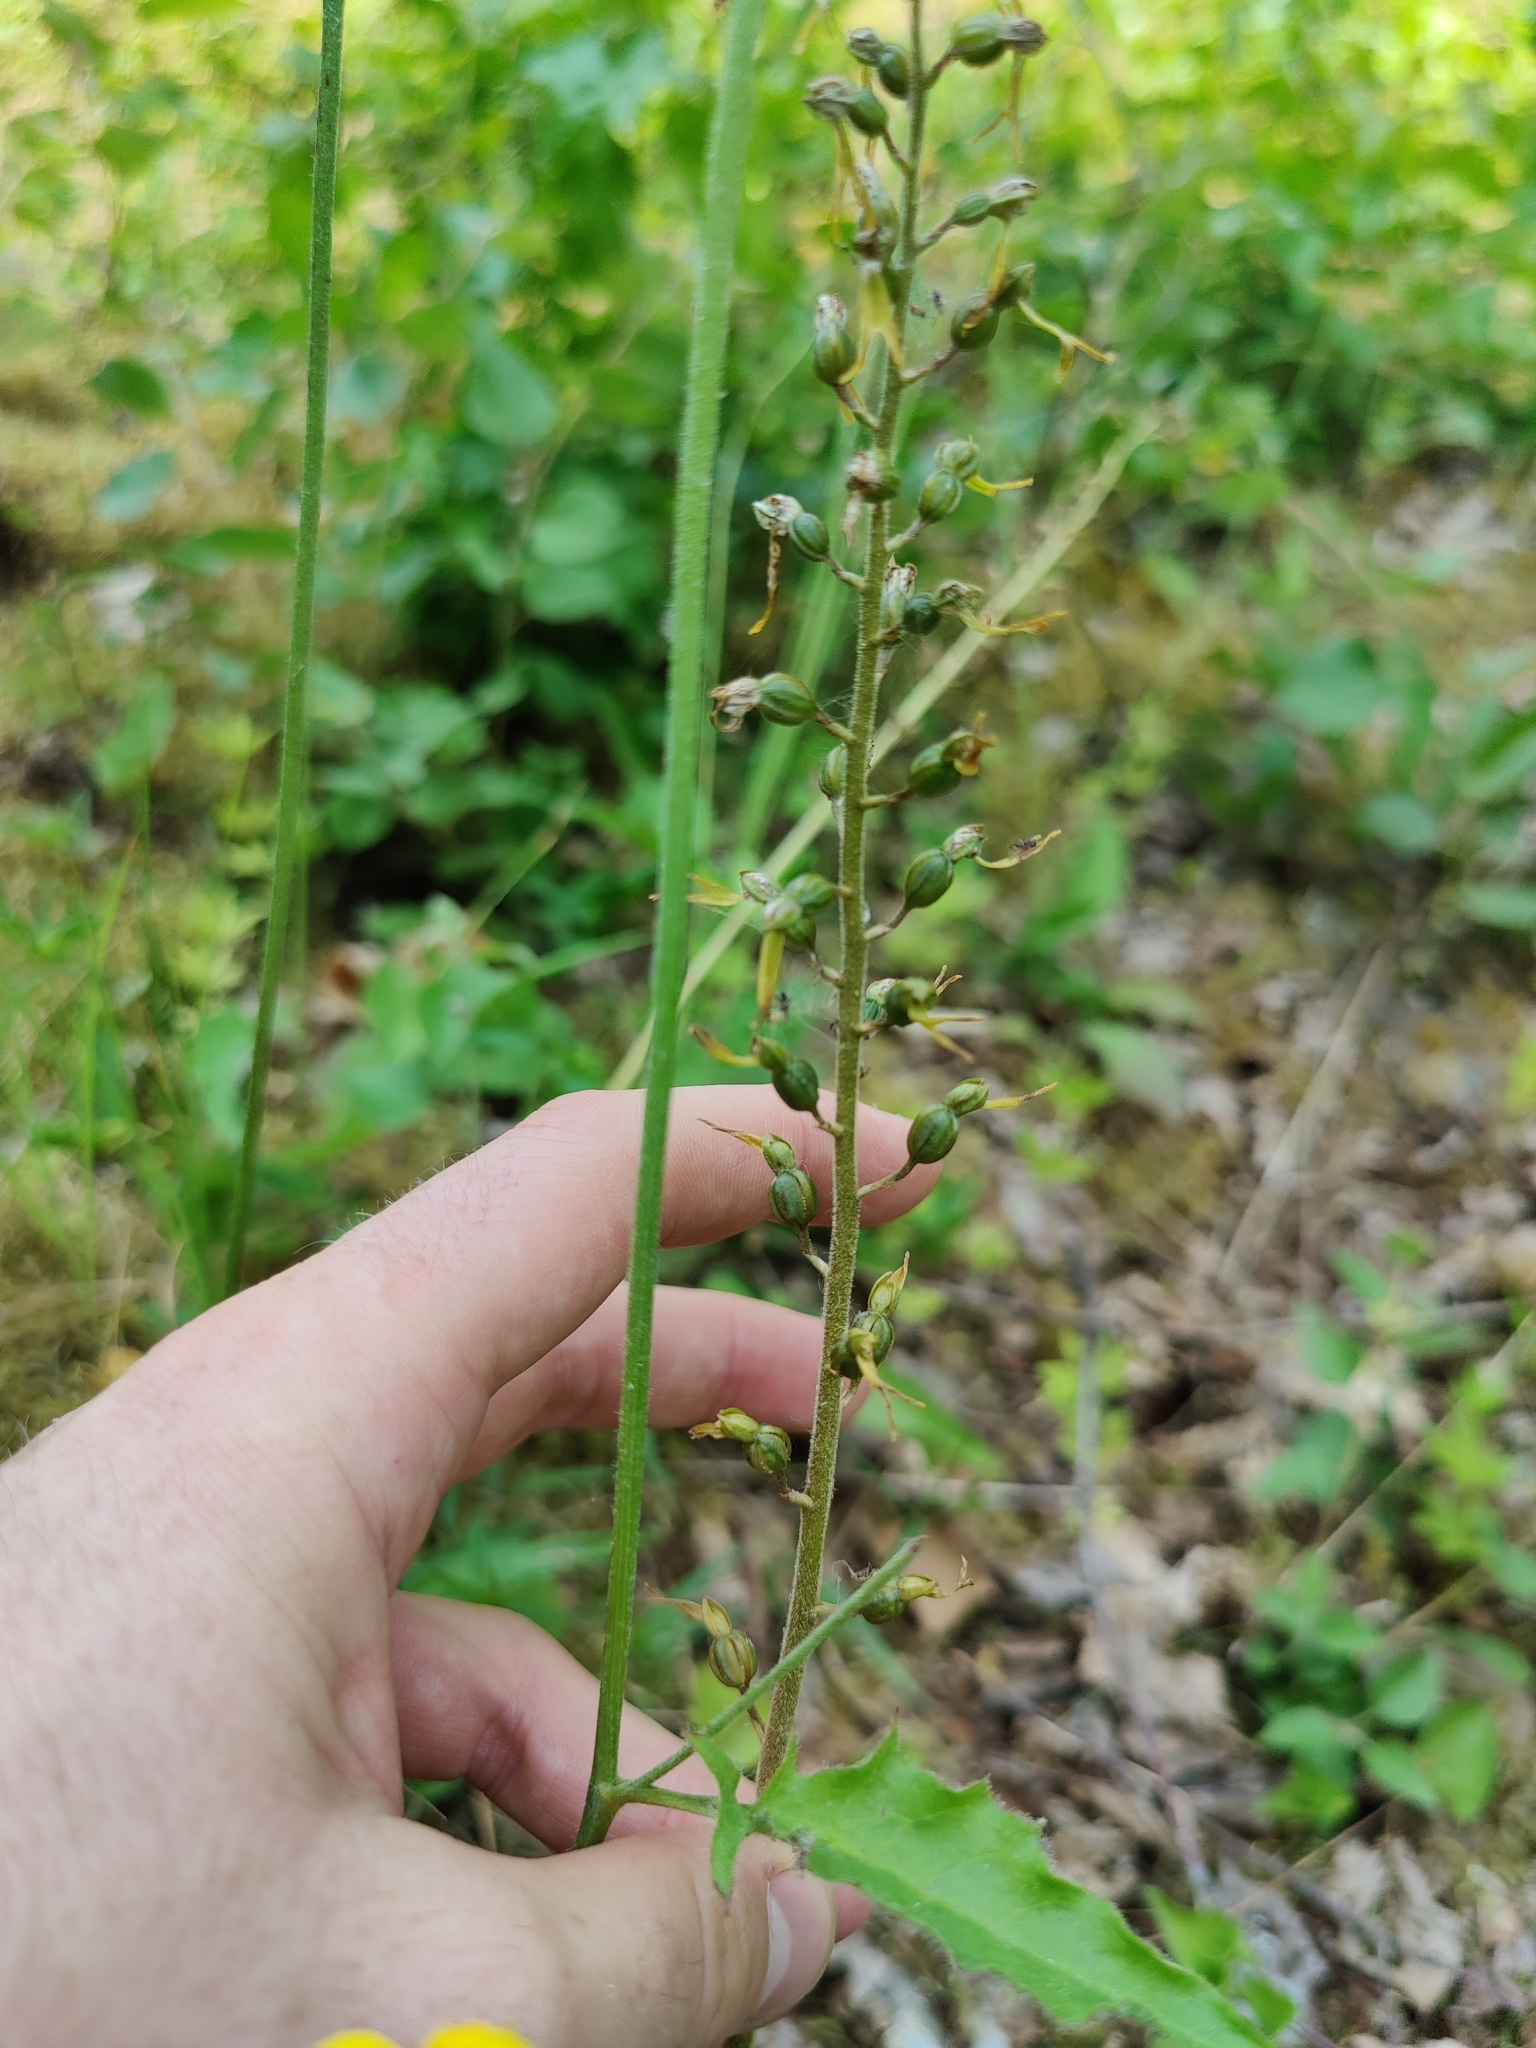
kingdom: Plantae
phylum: Tracheophyta
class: Liliopsida
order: Asparagales
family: Orchidaceae
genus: Neottia
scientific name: Neottia ovata
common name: Common twayblade
